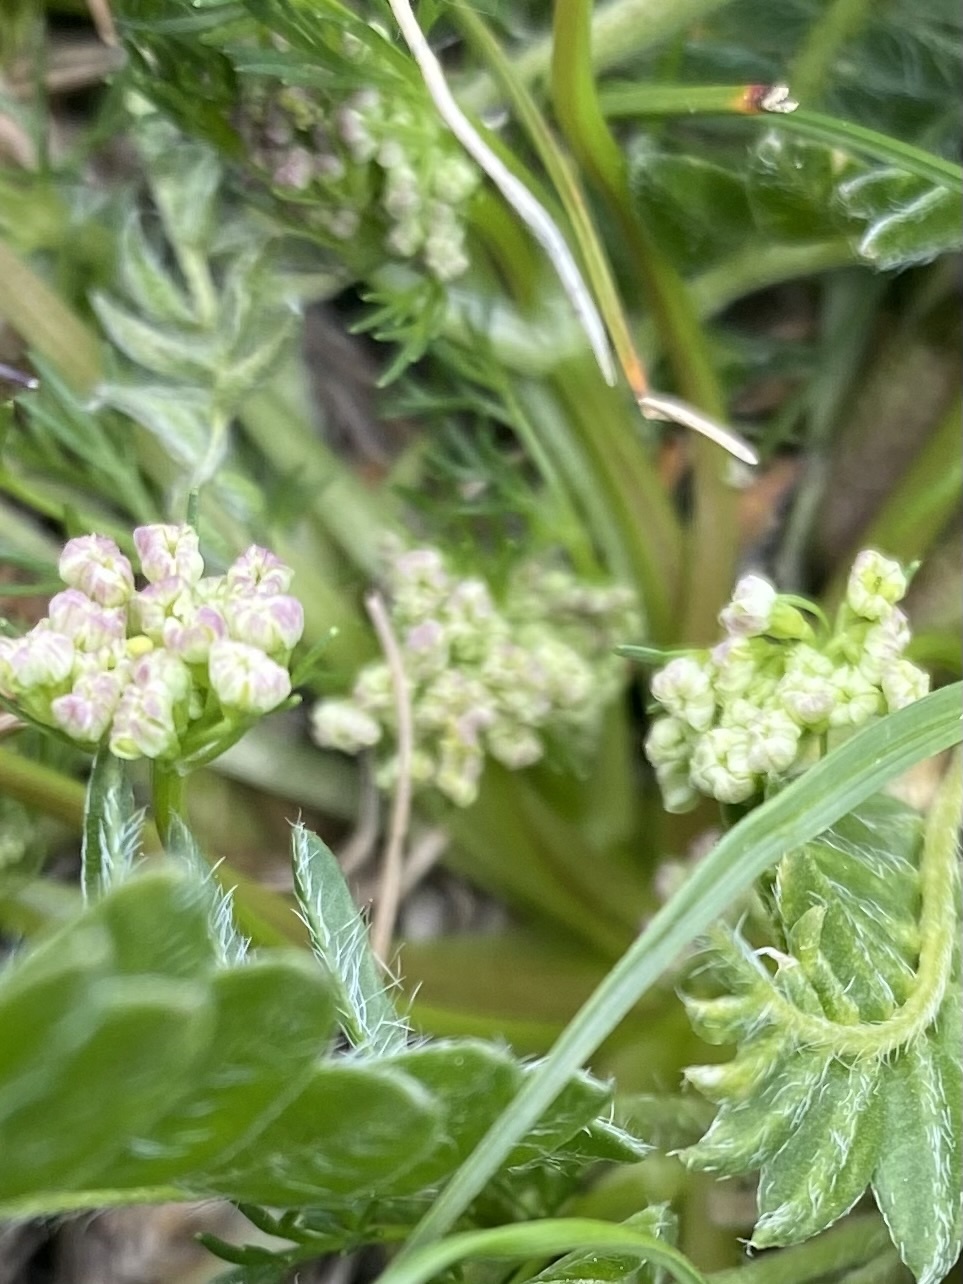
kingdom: Plantae
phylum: Tracheophyta
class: Magnoliopsida
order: Apiales
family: Apiaceae
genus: Chamaesciadium
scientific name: Chamaesciadium acaule
